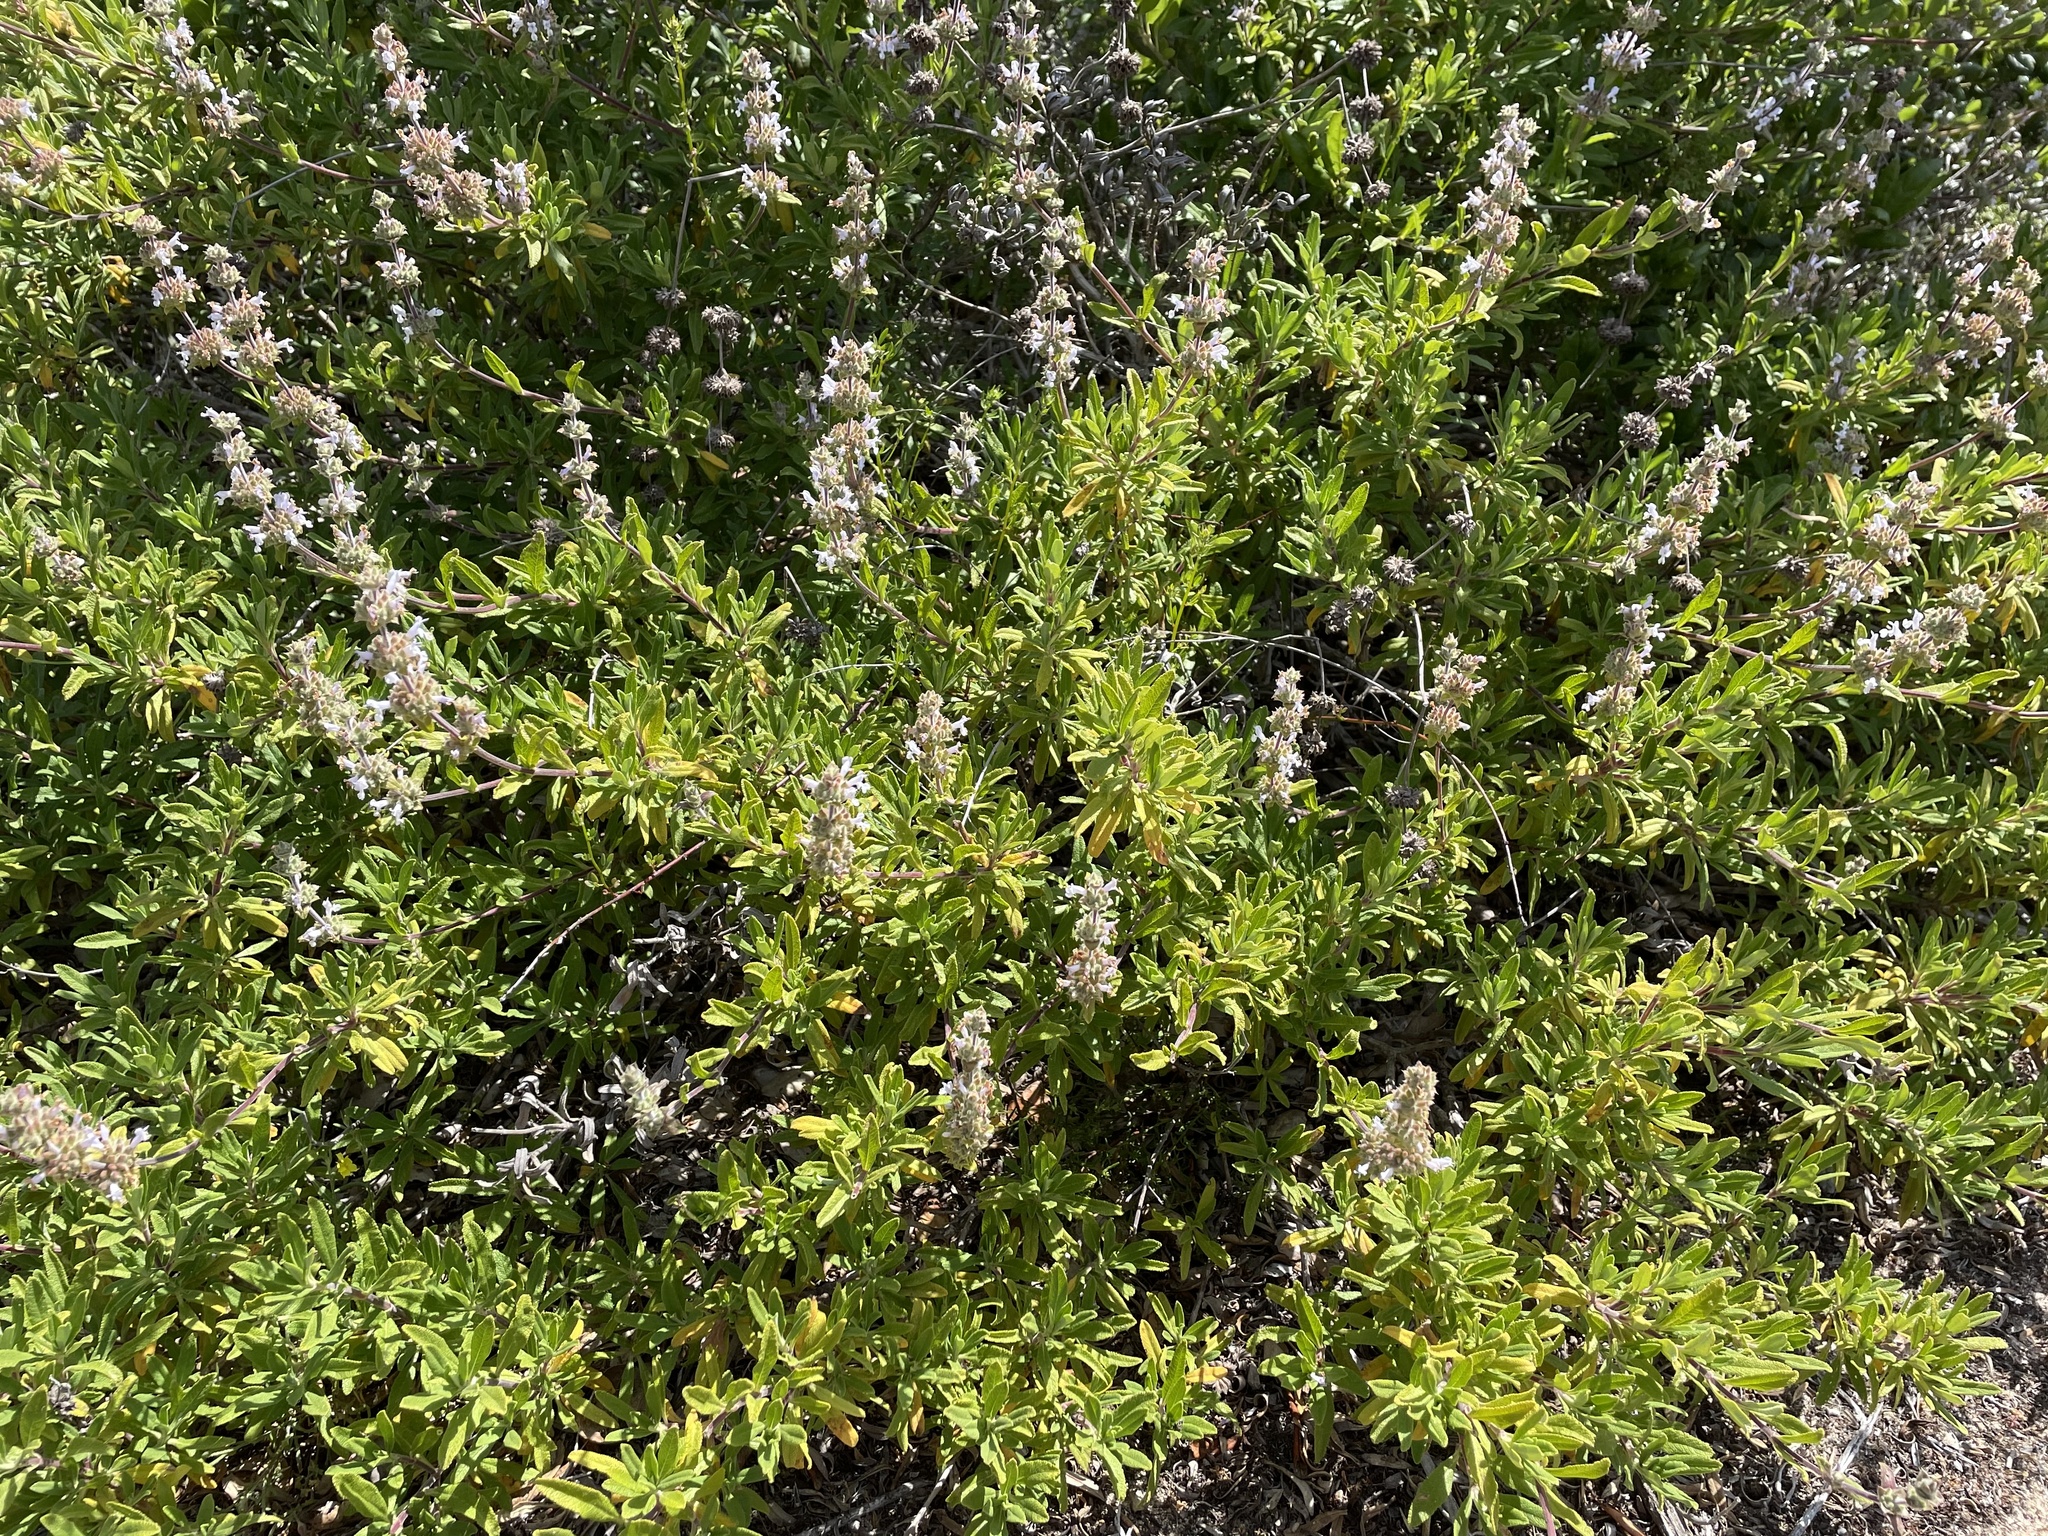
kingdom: Plantae
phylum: Tracheophyta
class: Magnoliopsida
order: Lamiales
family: Lamiaceae
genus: Salvia
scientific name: Salvia mellifera
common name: Black sage
